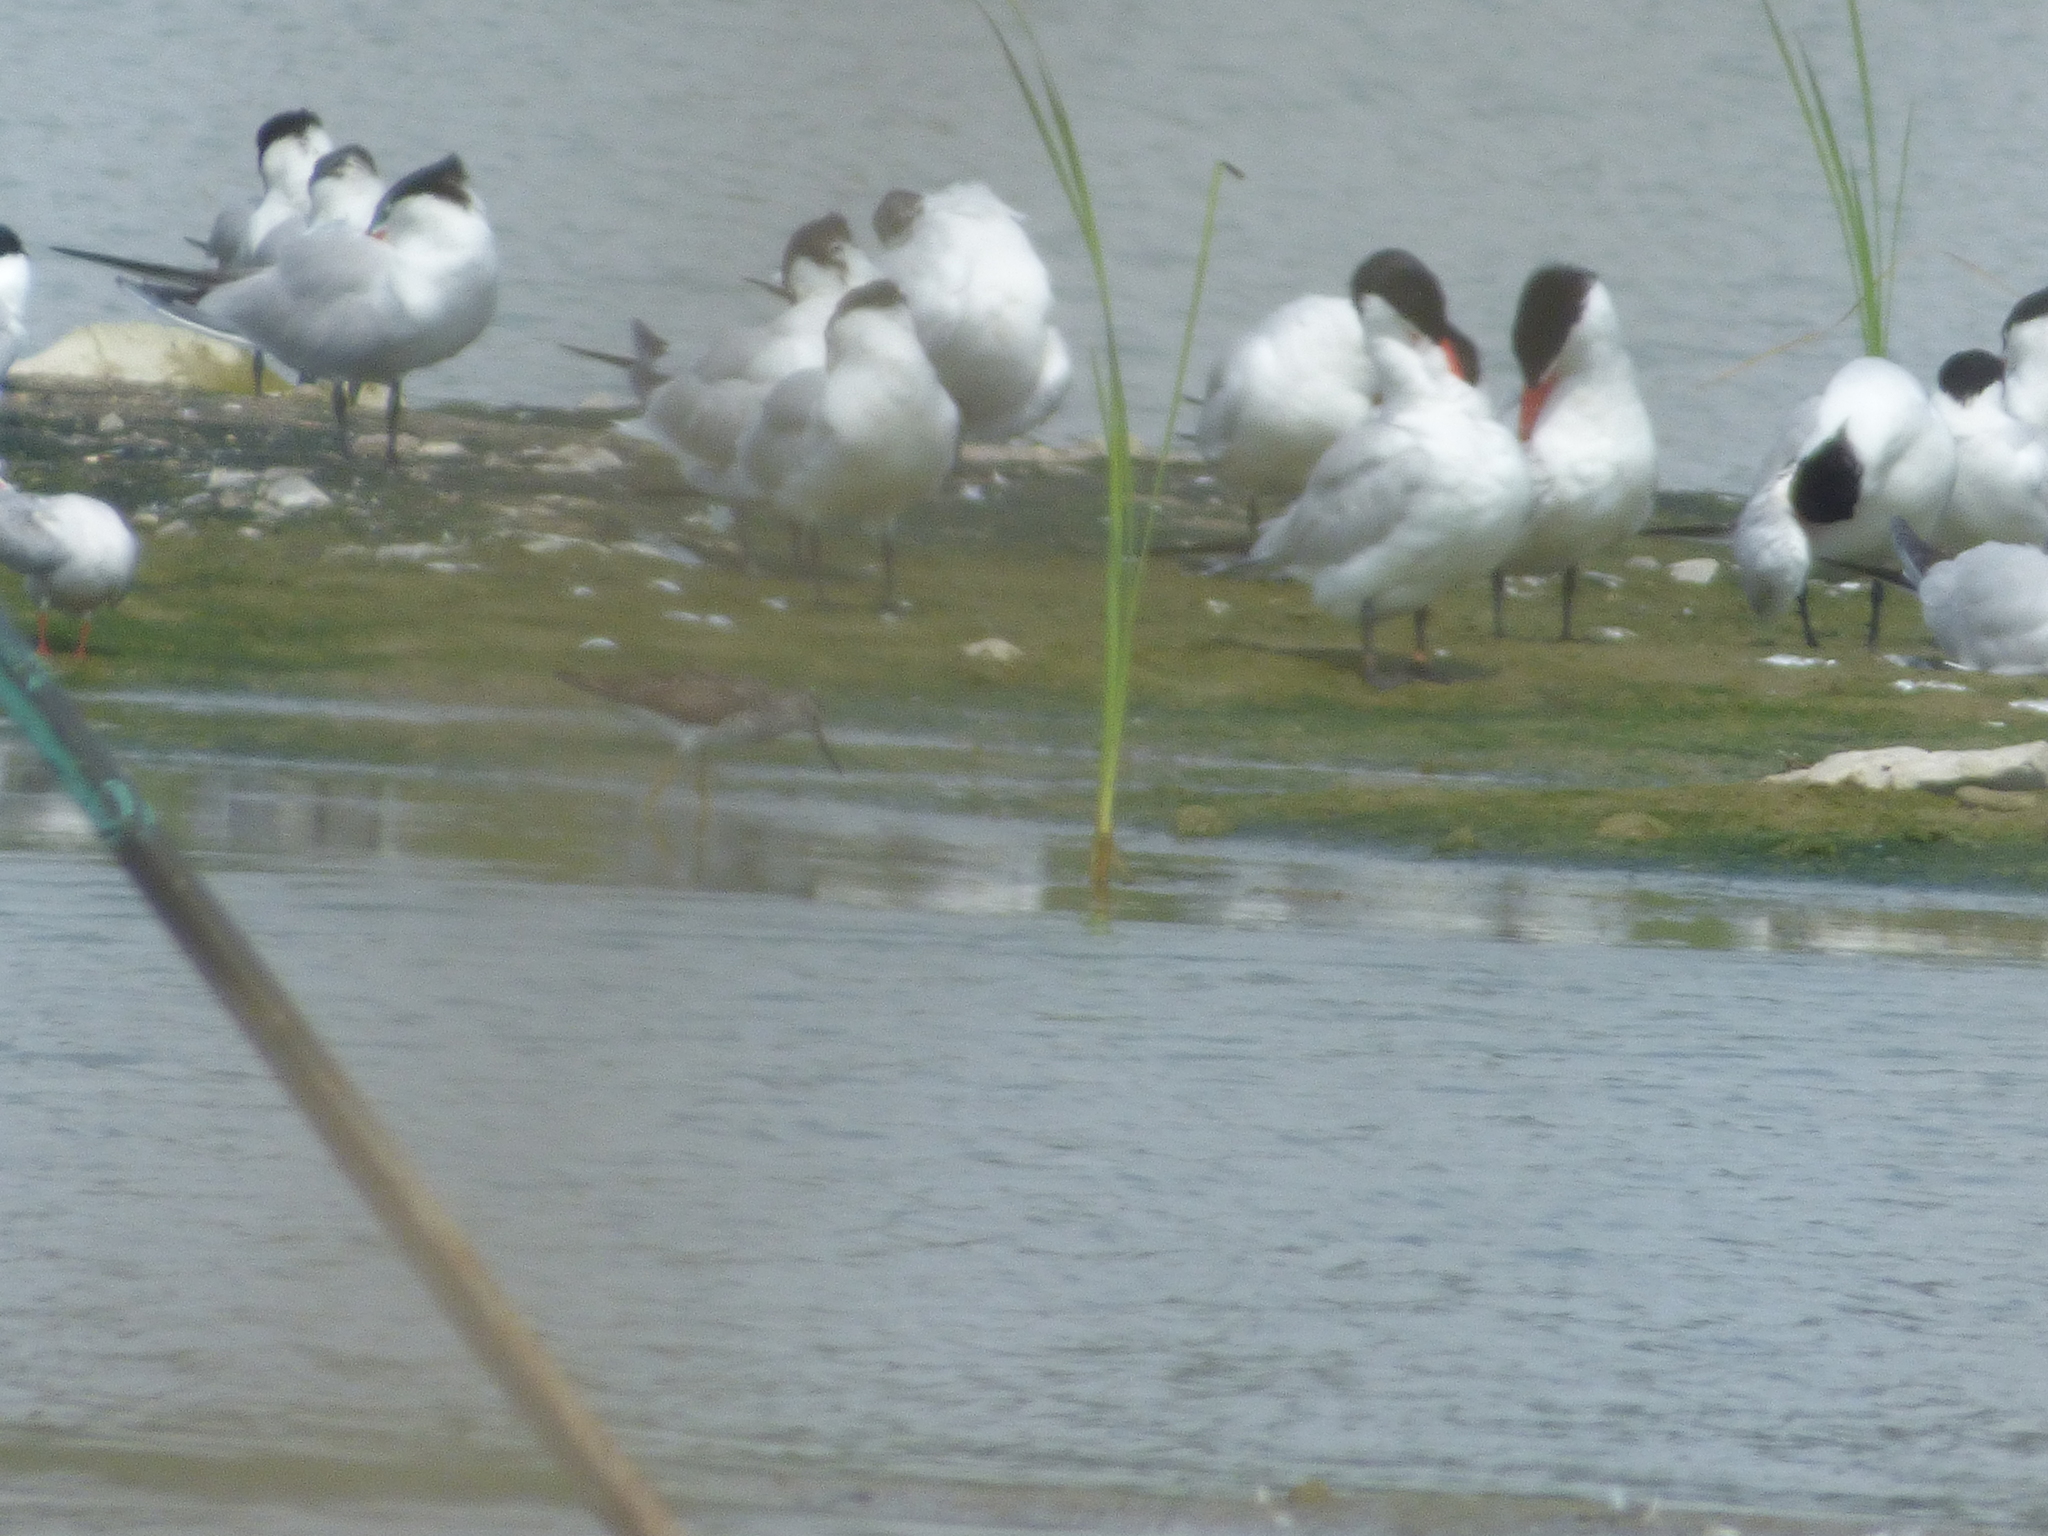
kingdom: Animalia
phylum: Chordata
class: Aves
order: Charadriiformes
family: Scolopacidae
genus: Tringa
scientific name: Tringa flavipes
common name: Lesser yellowlegs
